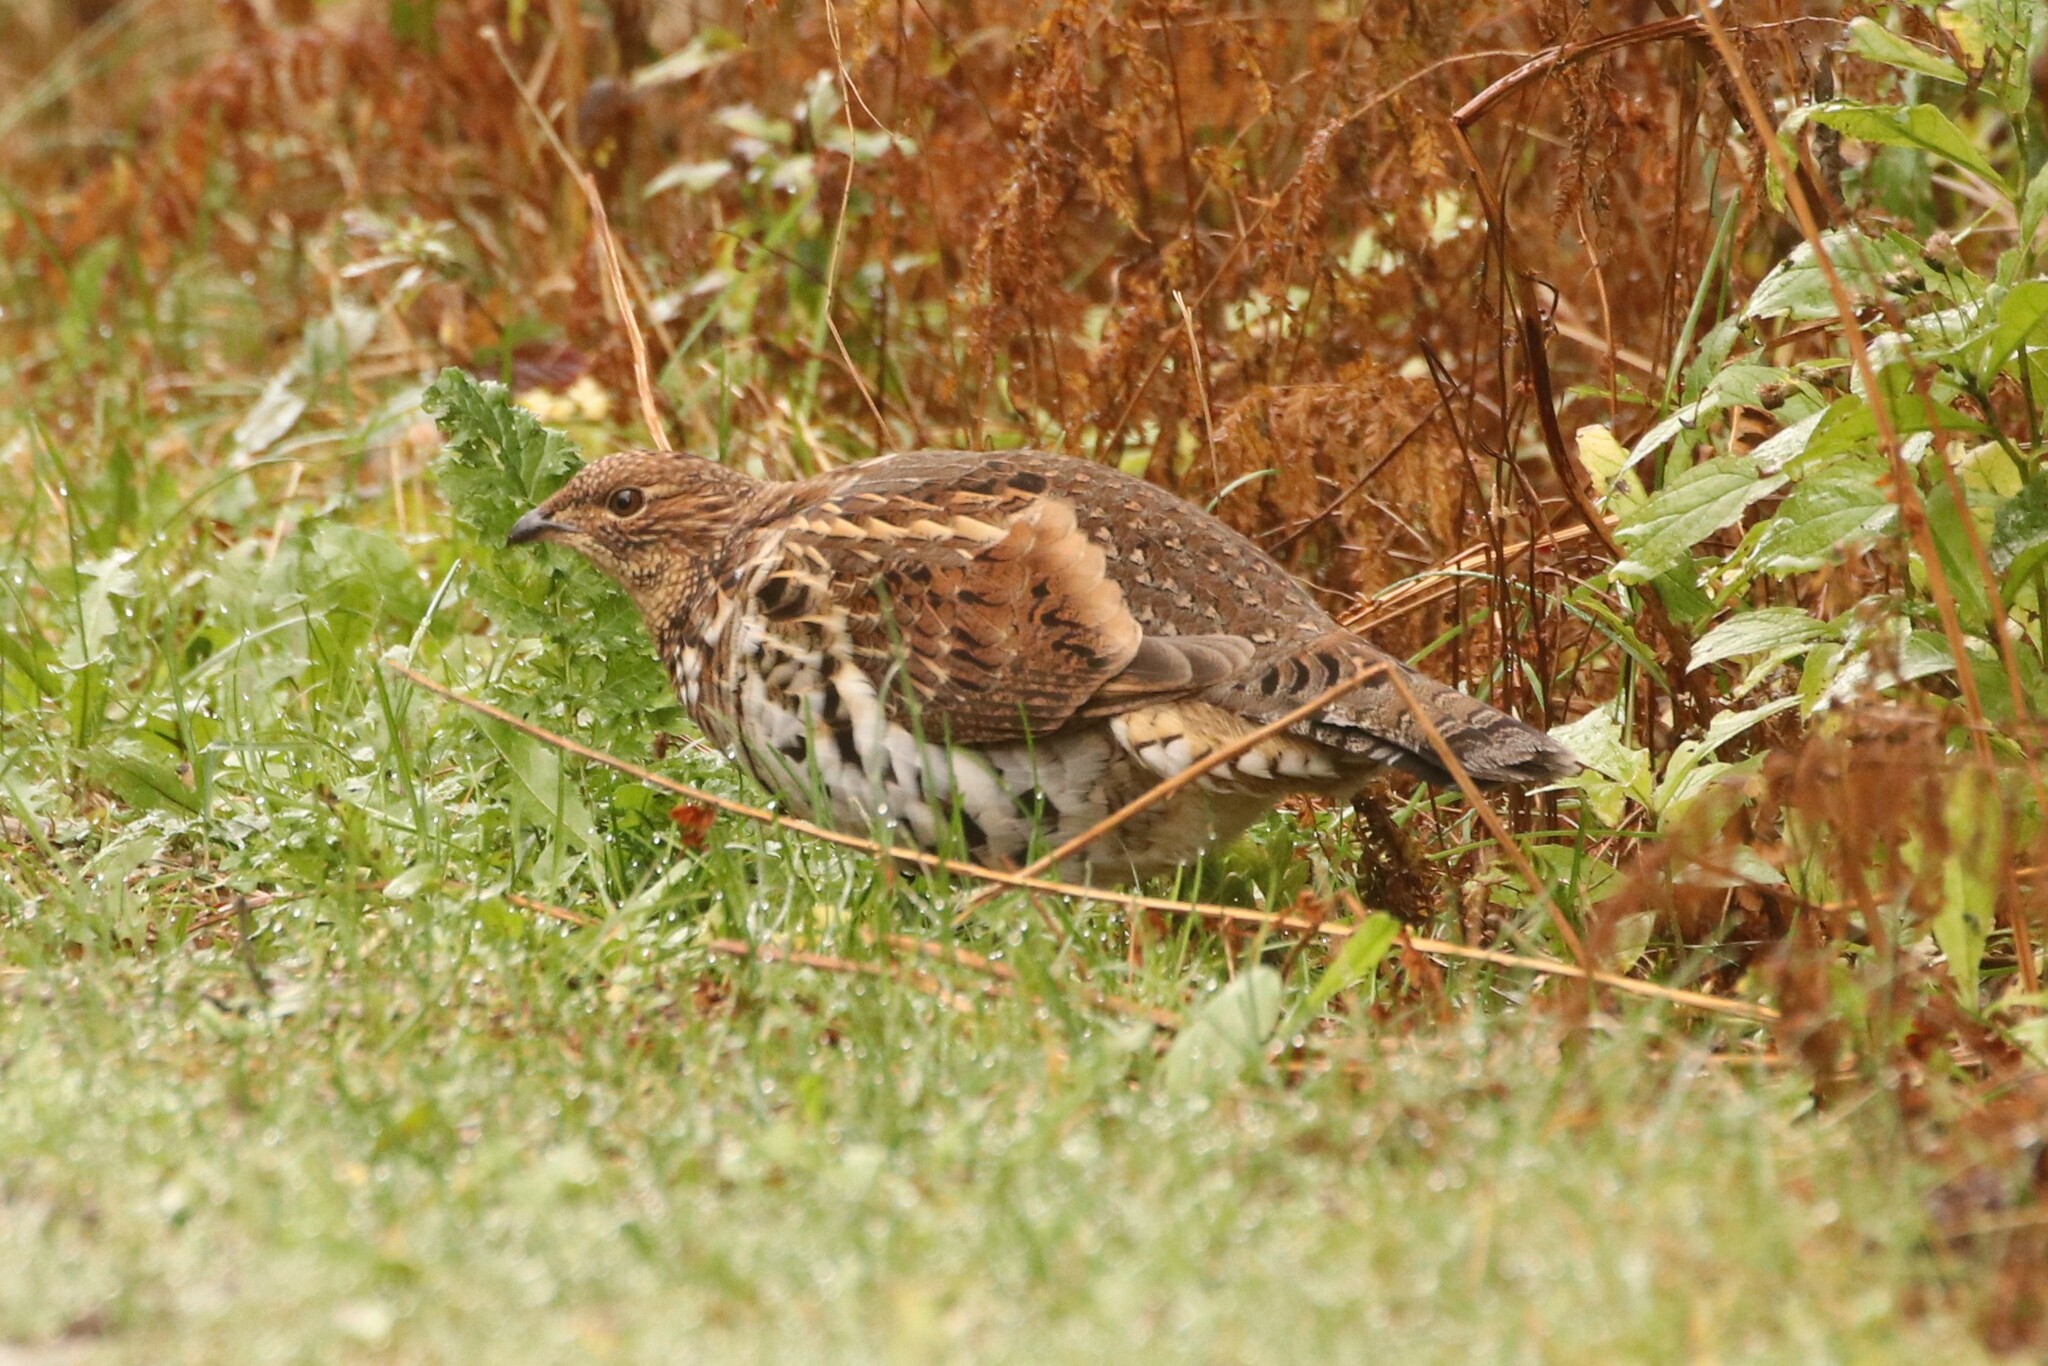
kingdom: Animalia
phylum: Chordata
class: Aves
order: Galliformes
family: Phasianidae
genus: Bonasa
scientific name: Bonasa umbellus
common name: Ruffed grouse
